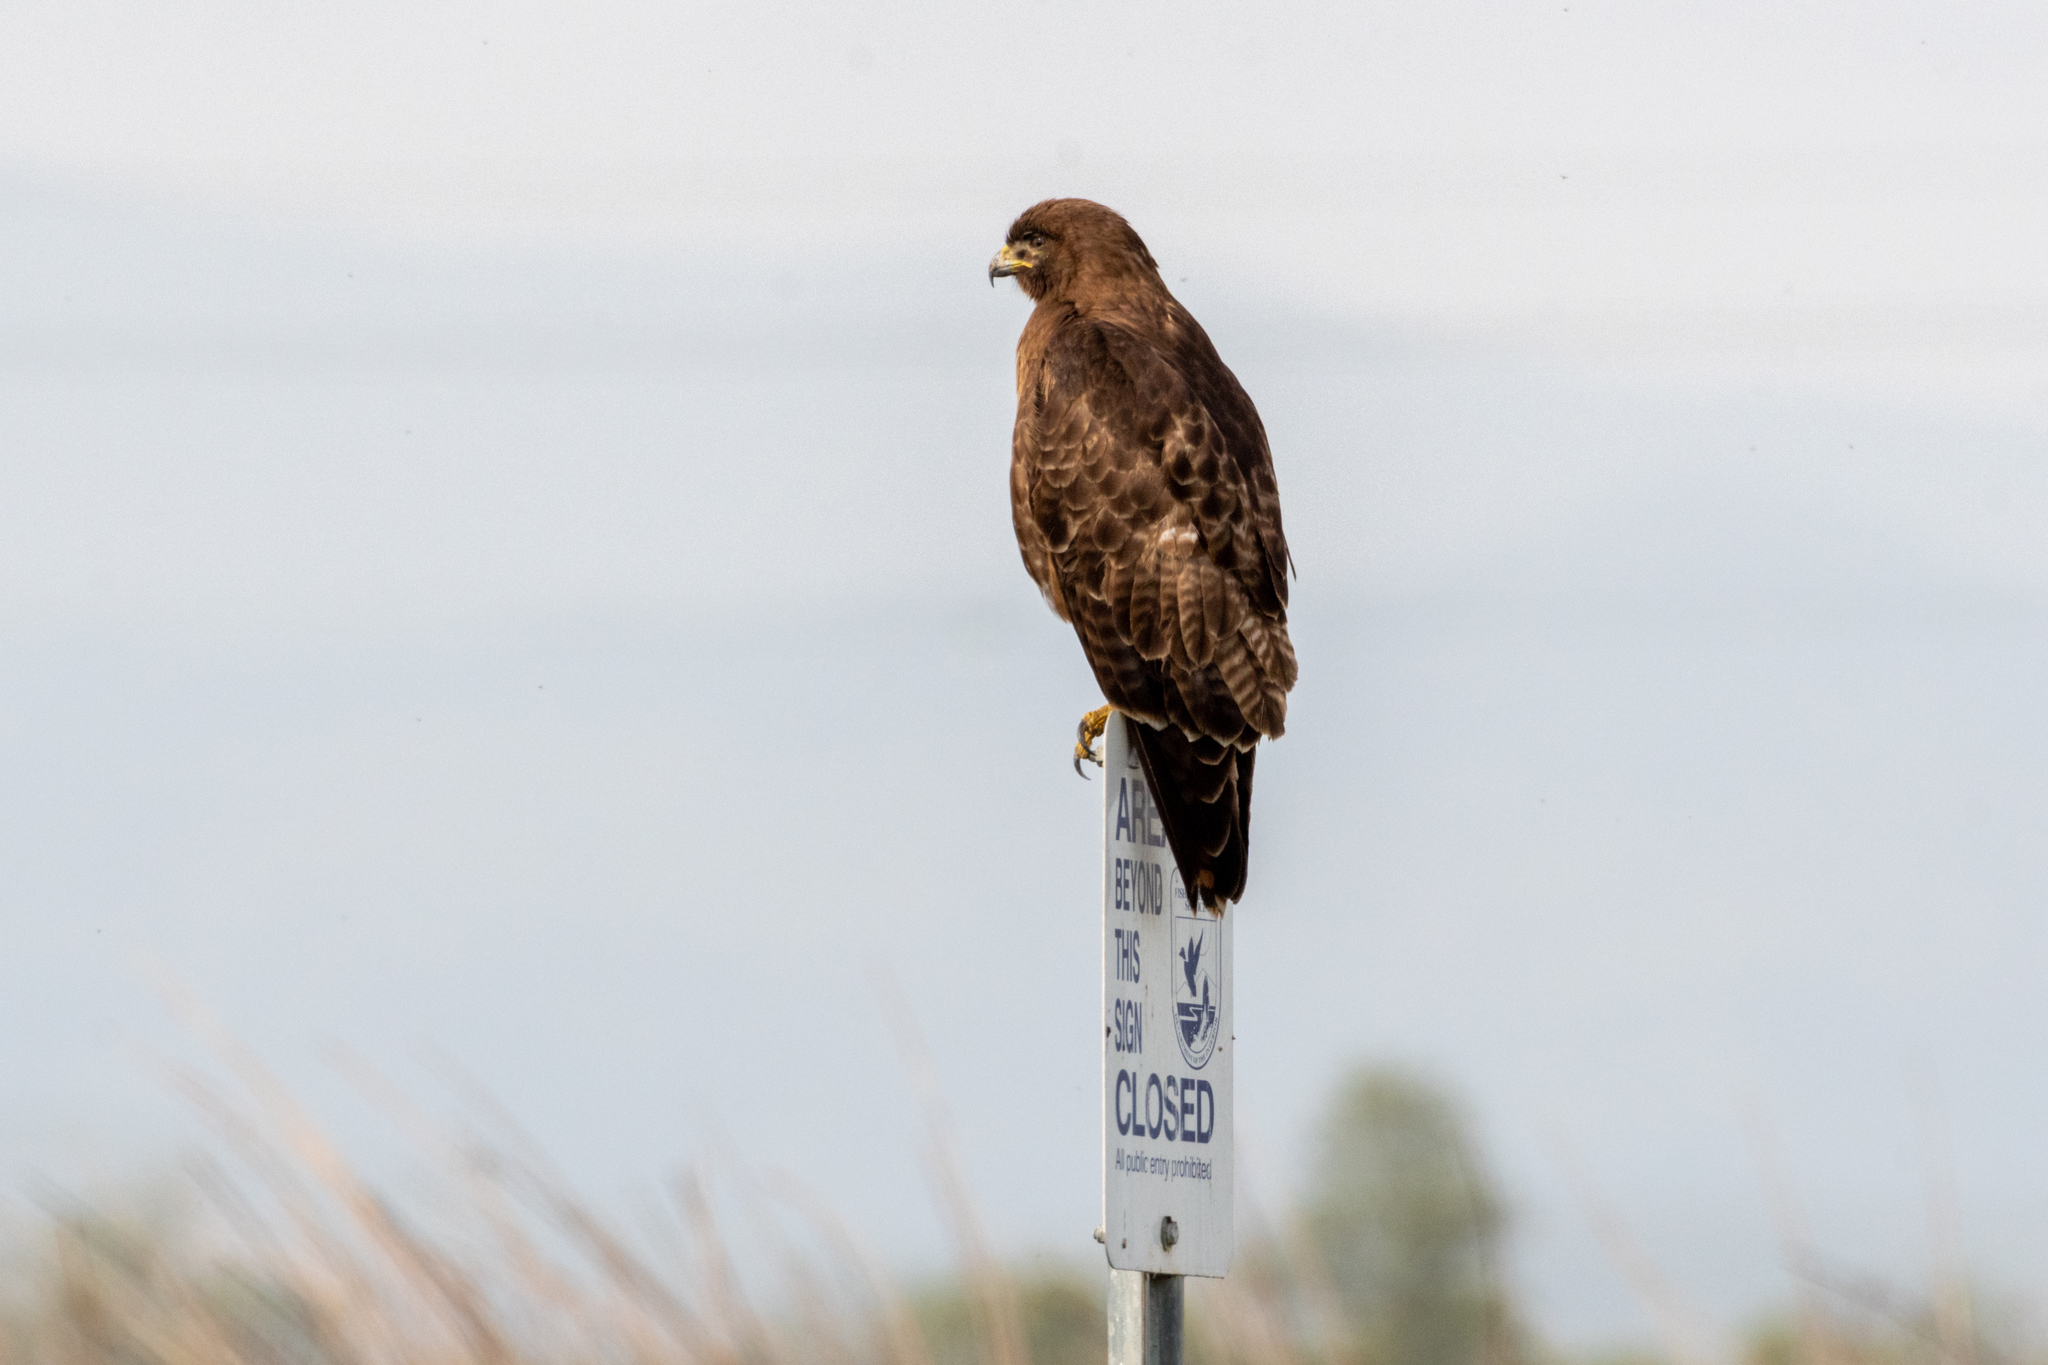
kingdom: Animalia
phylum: Chordata
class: Aves
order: Accipitriformes
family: Accipitridae
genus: Buteo
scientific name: Buteo jamaicensis
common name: Red-tailed hawk
